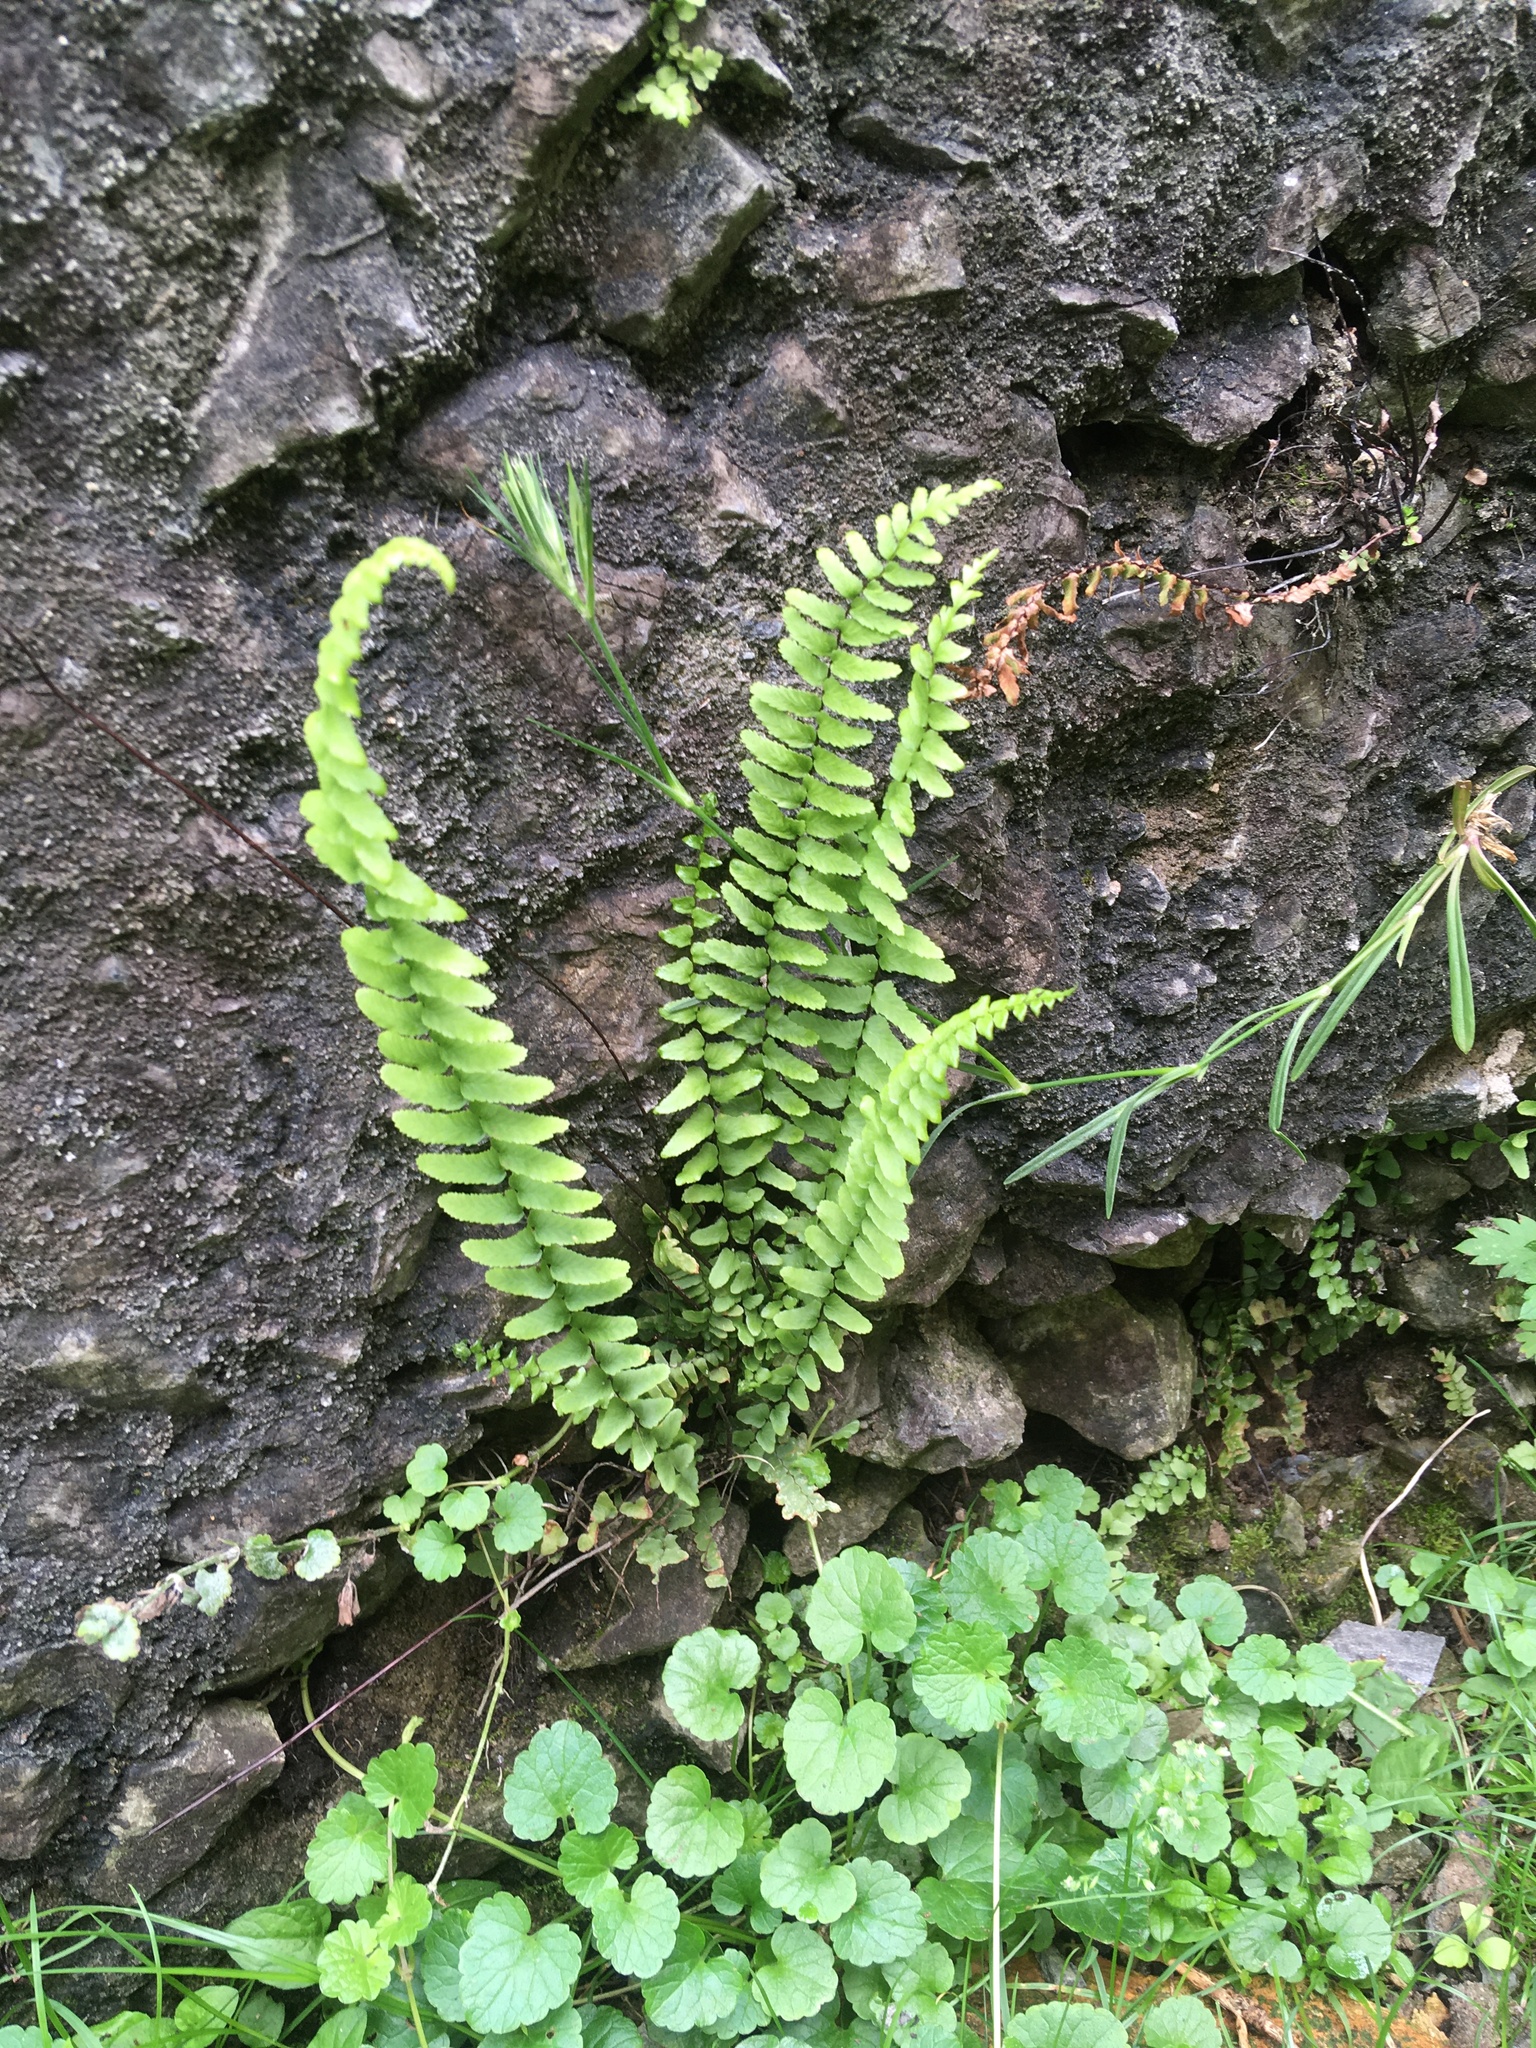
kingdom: Plantae
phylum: Tracheophyta
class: Polypodiopsida
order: Polypodiales
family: Aspleniaceae
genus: Asplenium
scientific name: Asplenium platyneuron
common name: Ebony spleenwort
